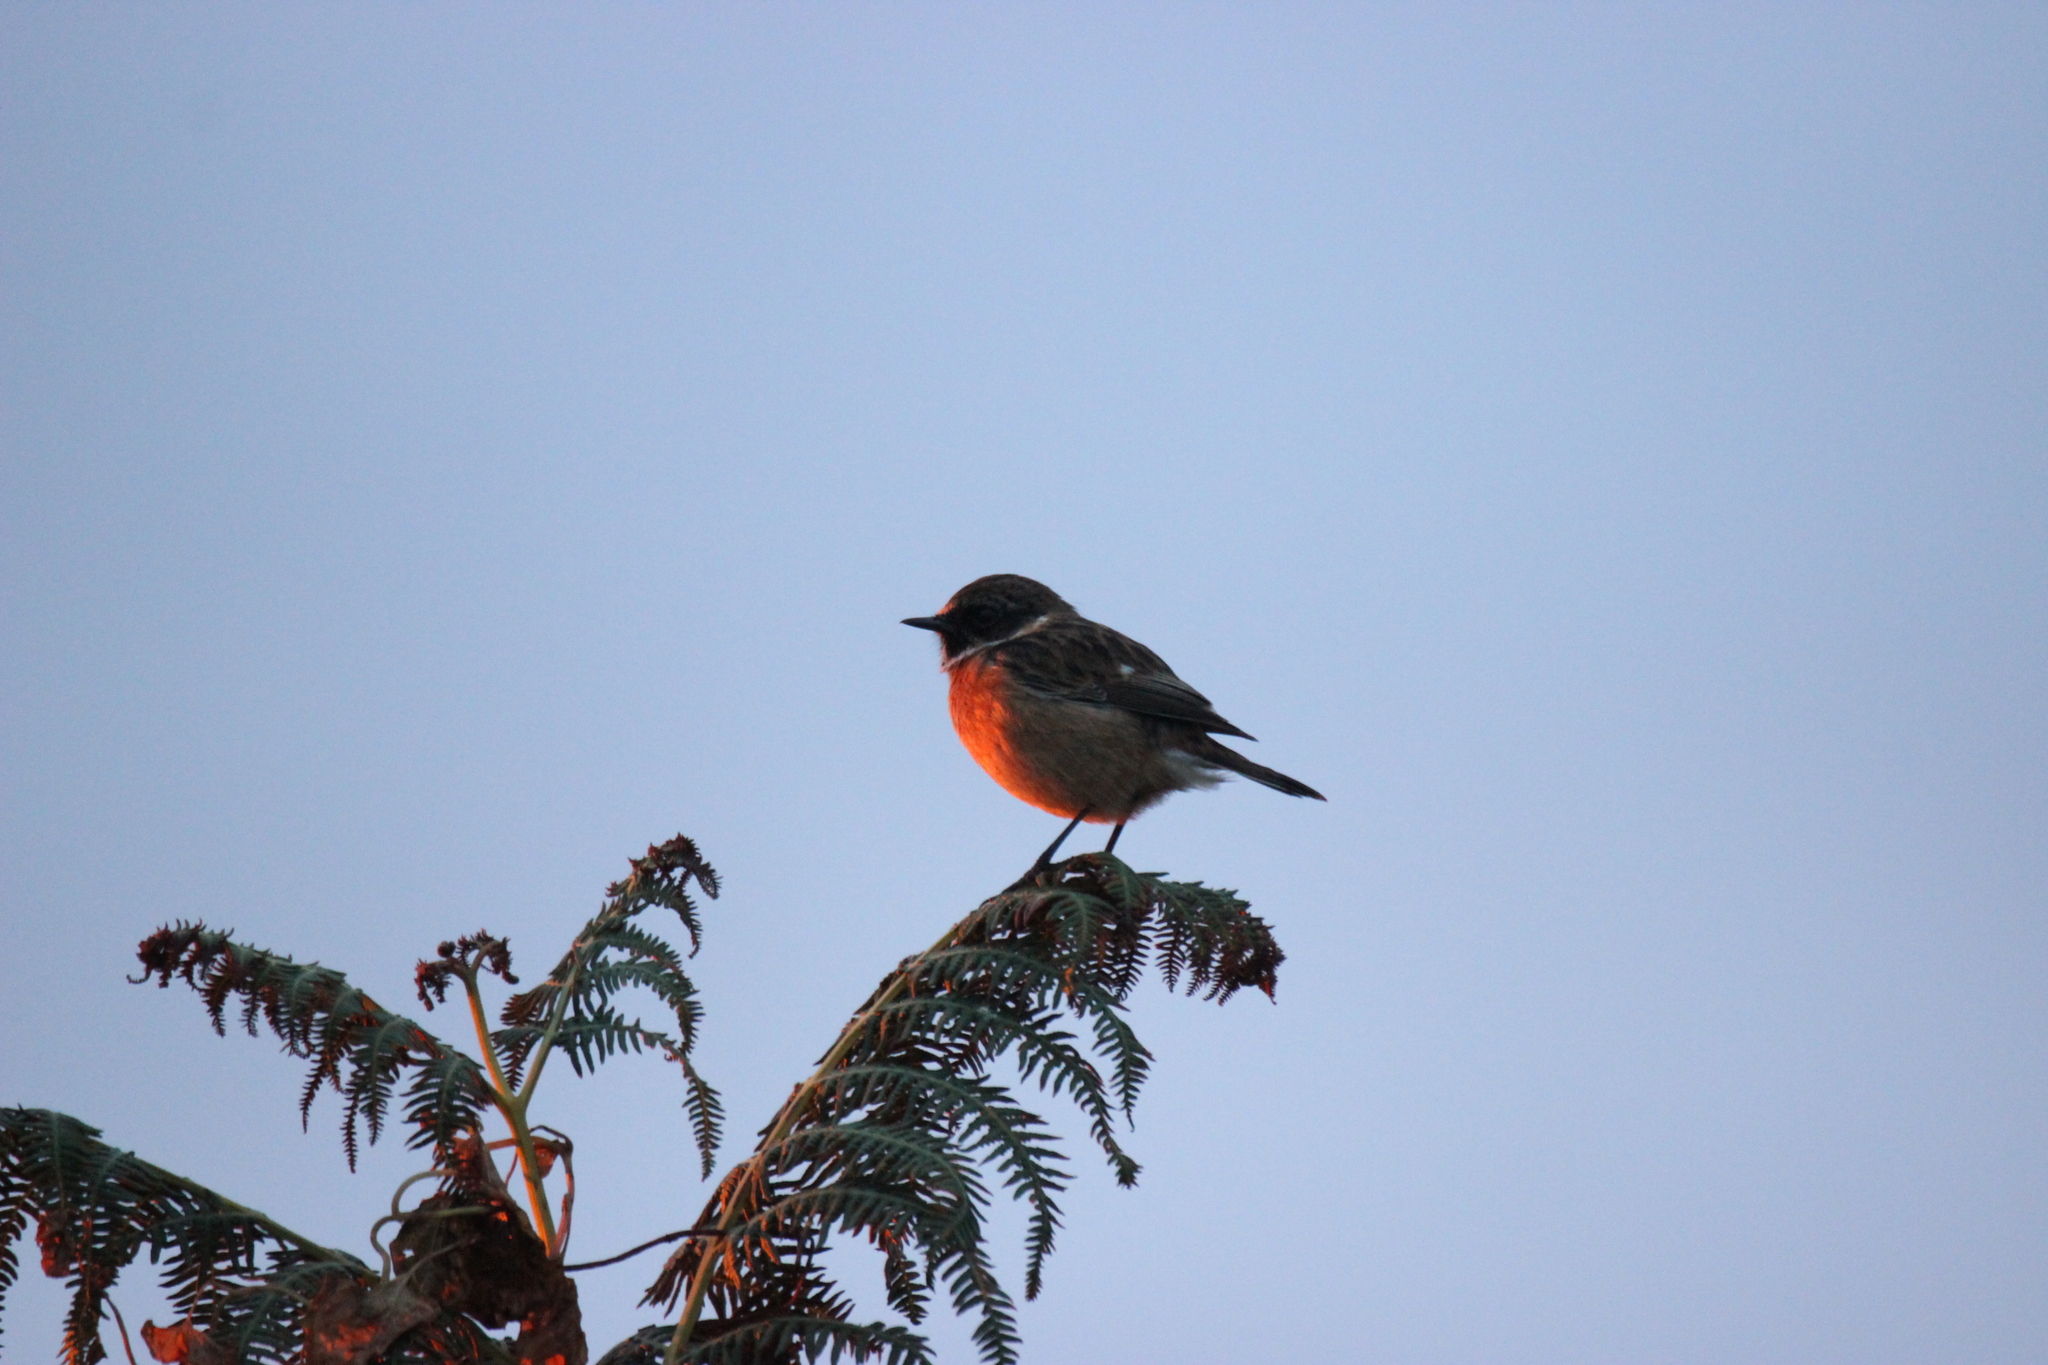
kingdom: Animalia
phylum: Chordata
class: Aves
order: Passeriformes
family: Muscicapidae
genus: Saxicola
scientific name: Saxicola rubicola
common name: European stonechat
